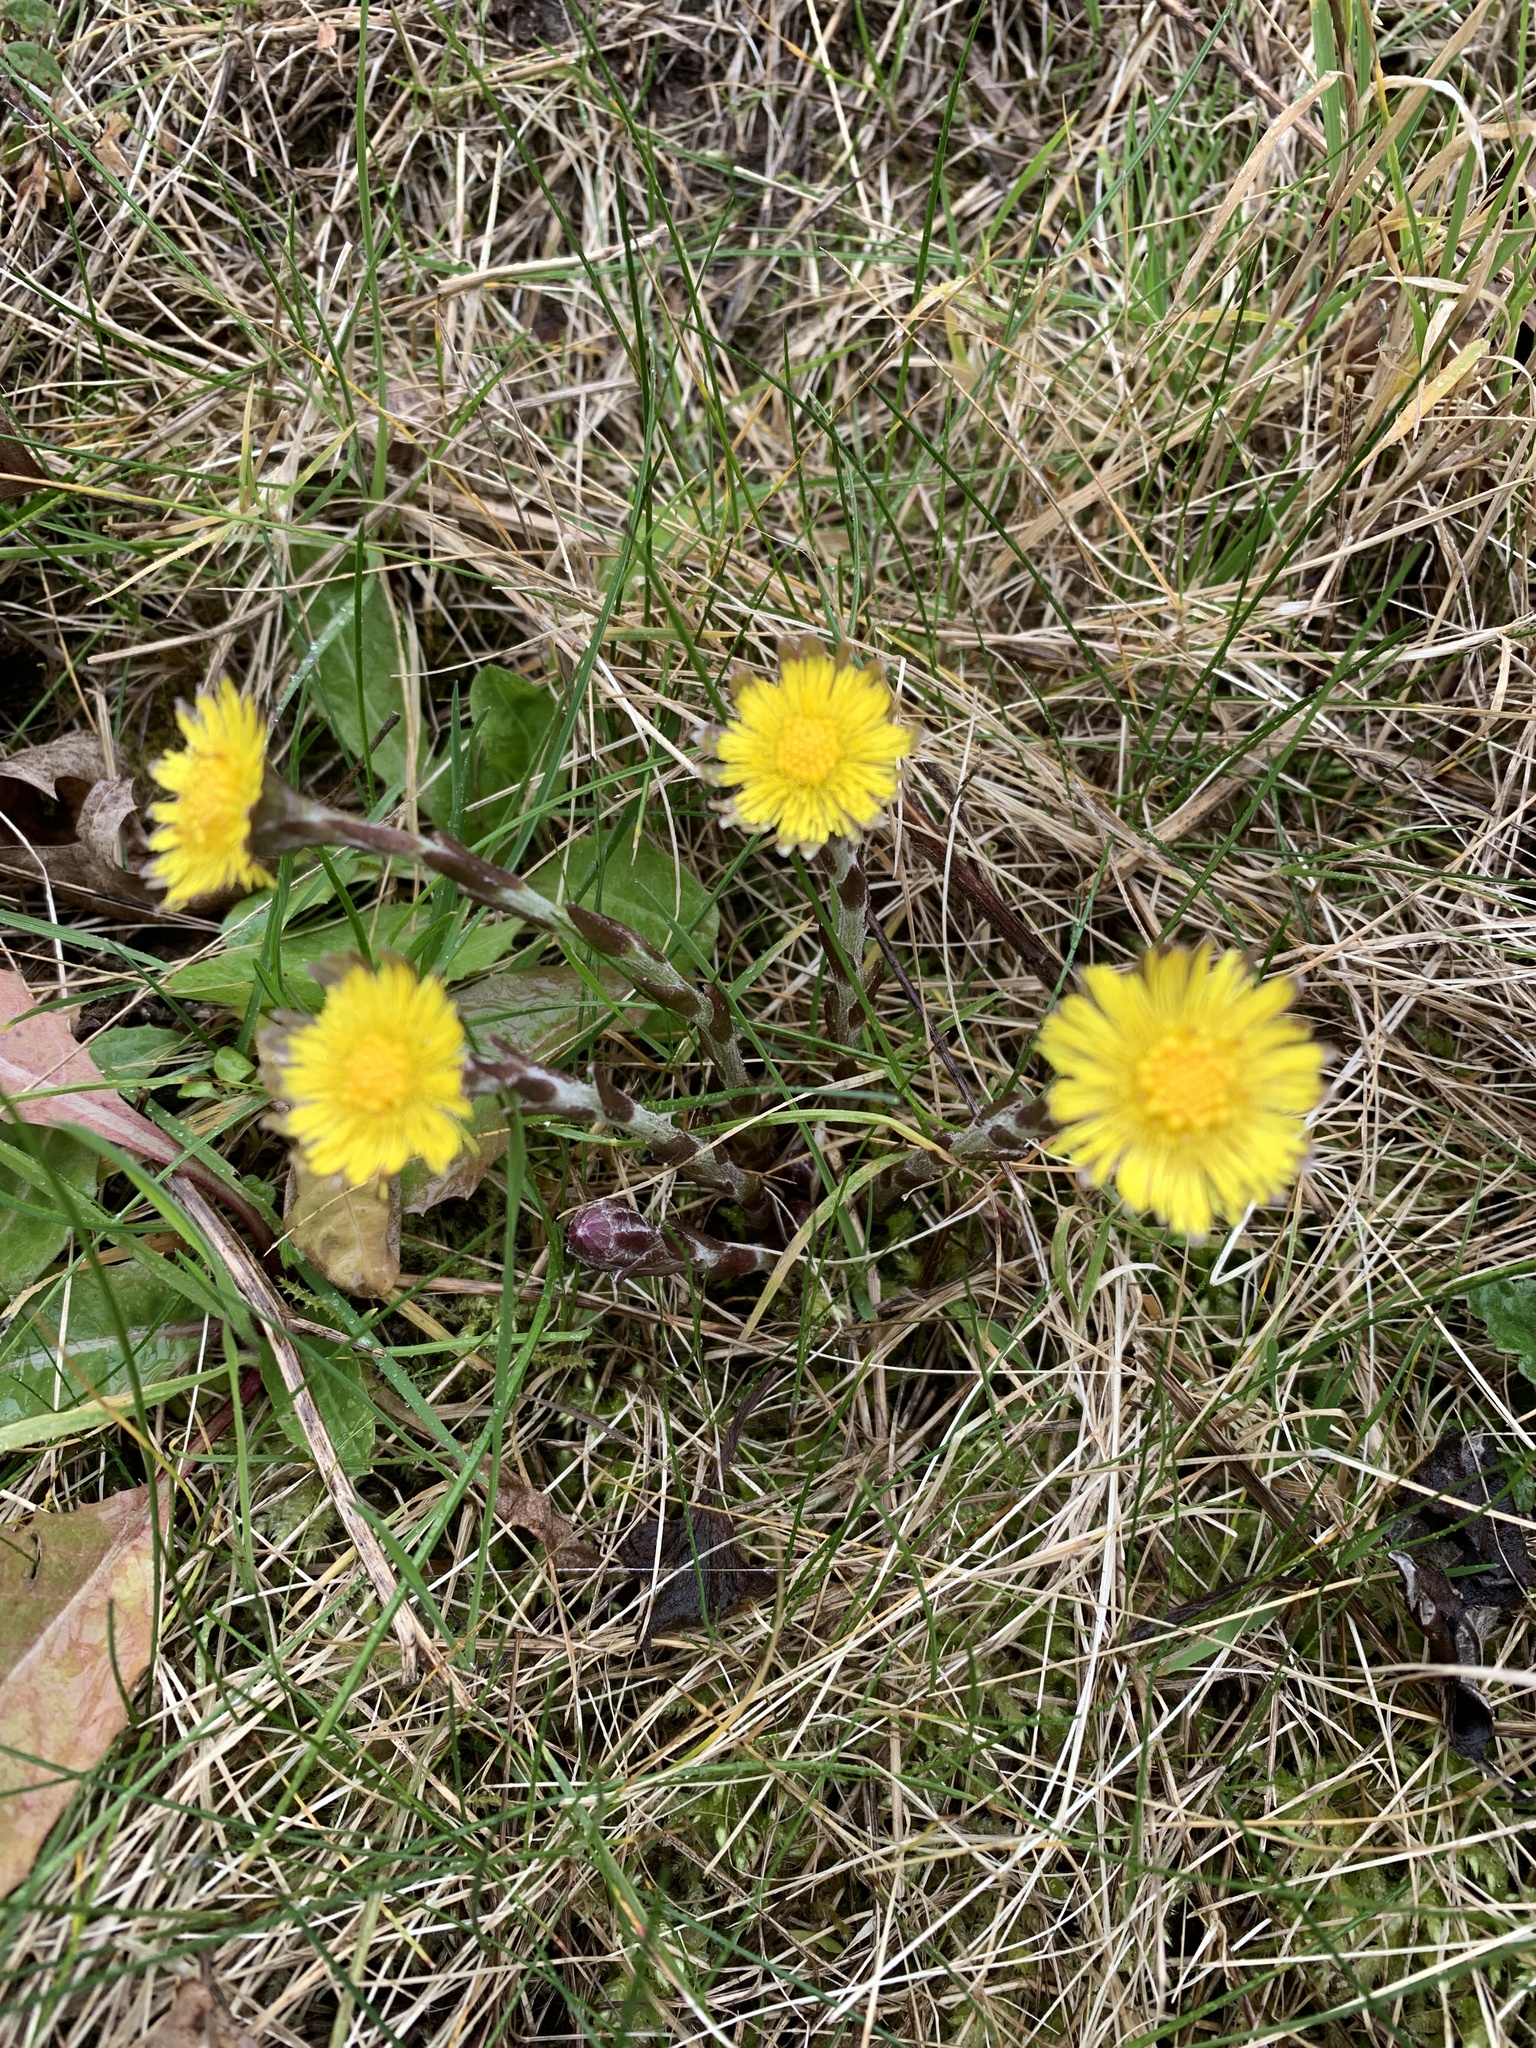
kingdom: Plantae
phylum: Tracheophyta
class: Magnoliopsida
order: Asterales
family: Asteraceae
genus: Tussilago
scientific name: Tussilago farfara
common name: Coltsfoot
